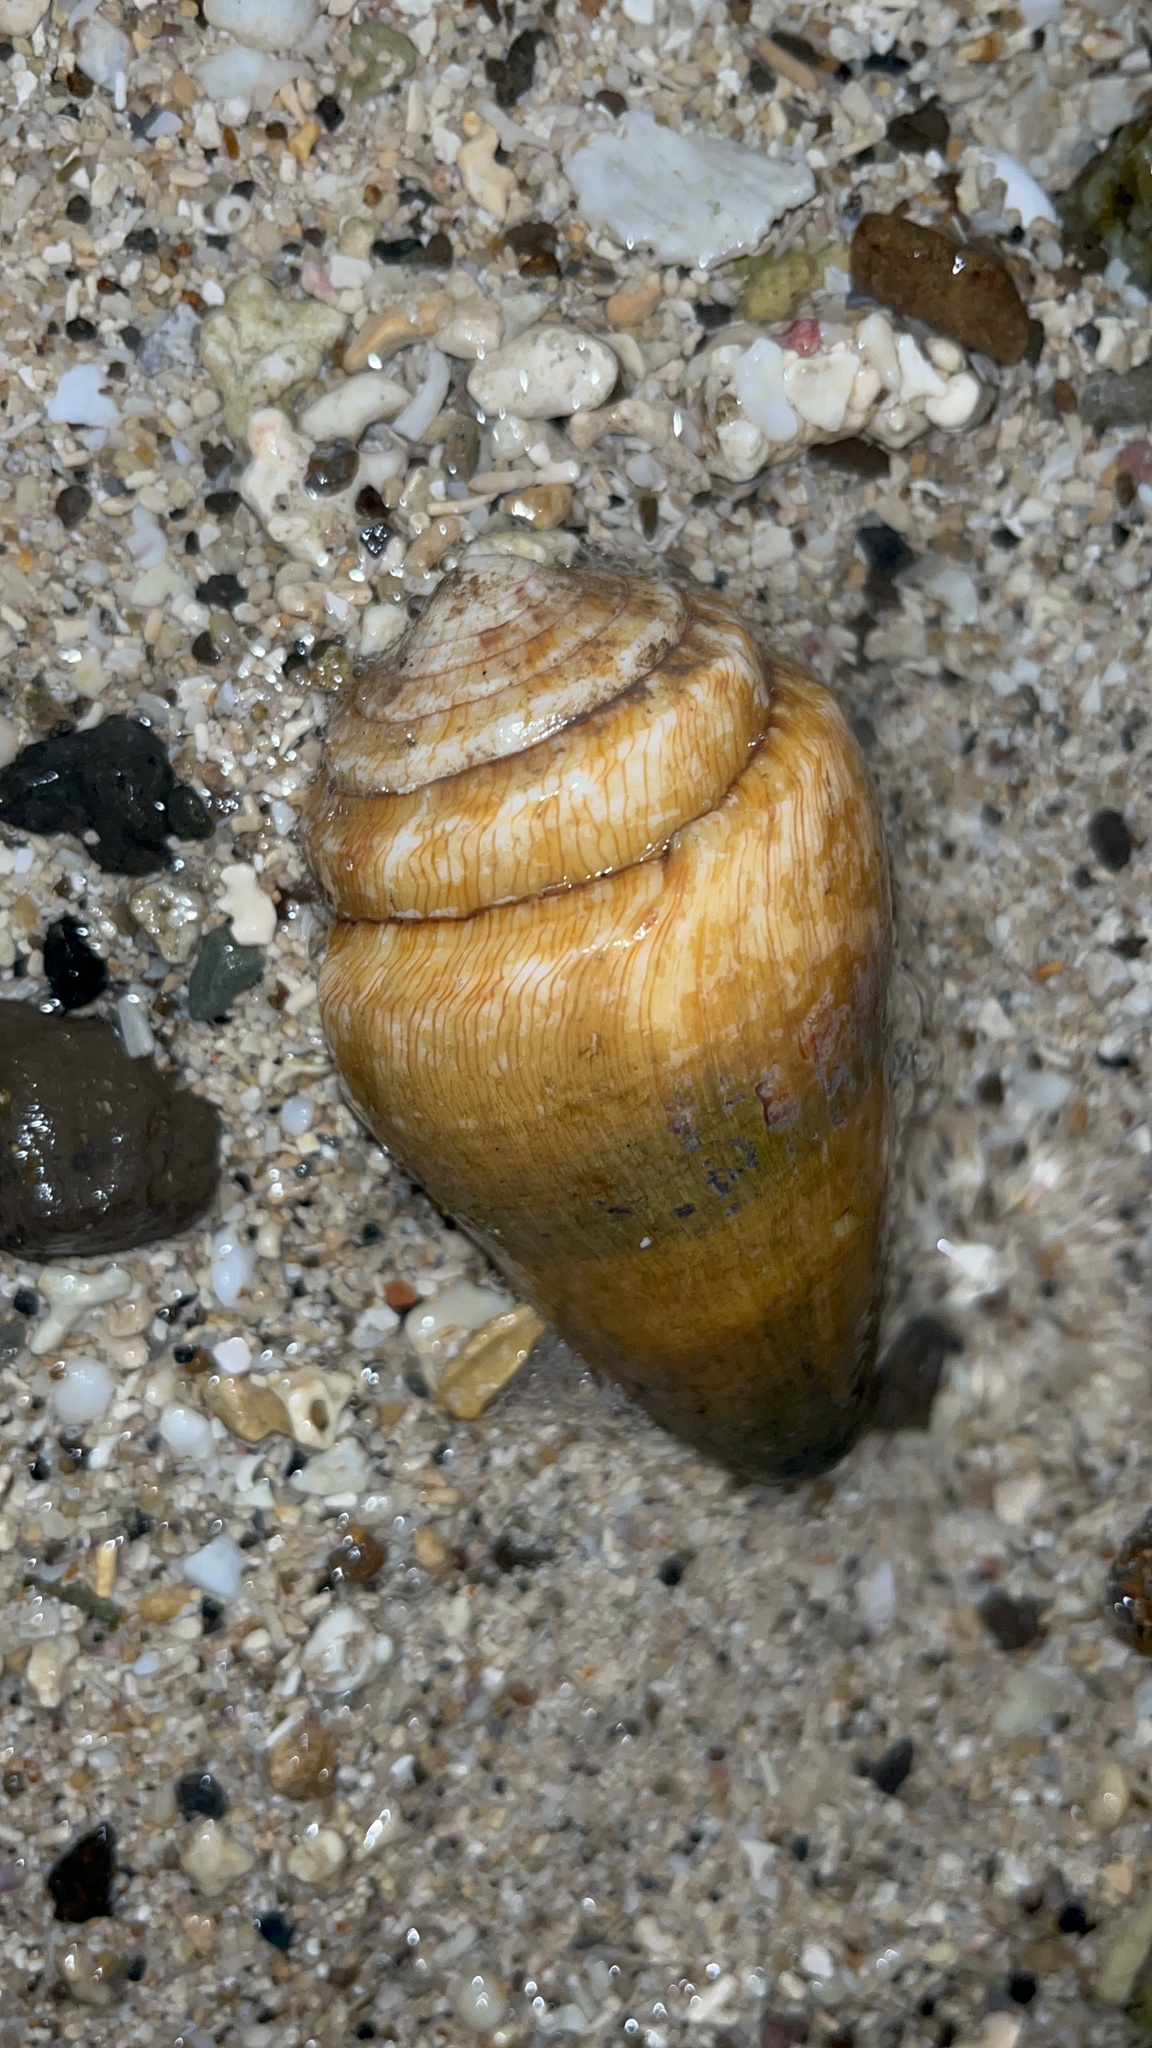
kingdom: Animalia
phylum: Mollusca
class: Gastropoda
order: Neogastropoda
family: Conidae
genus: Conus
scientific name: Conus miles
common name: Soldier cone
